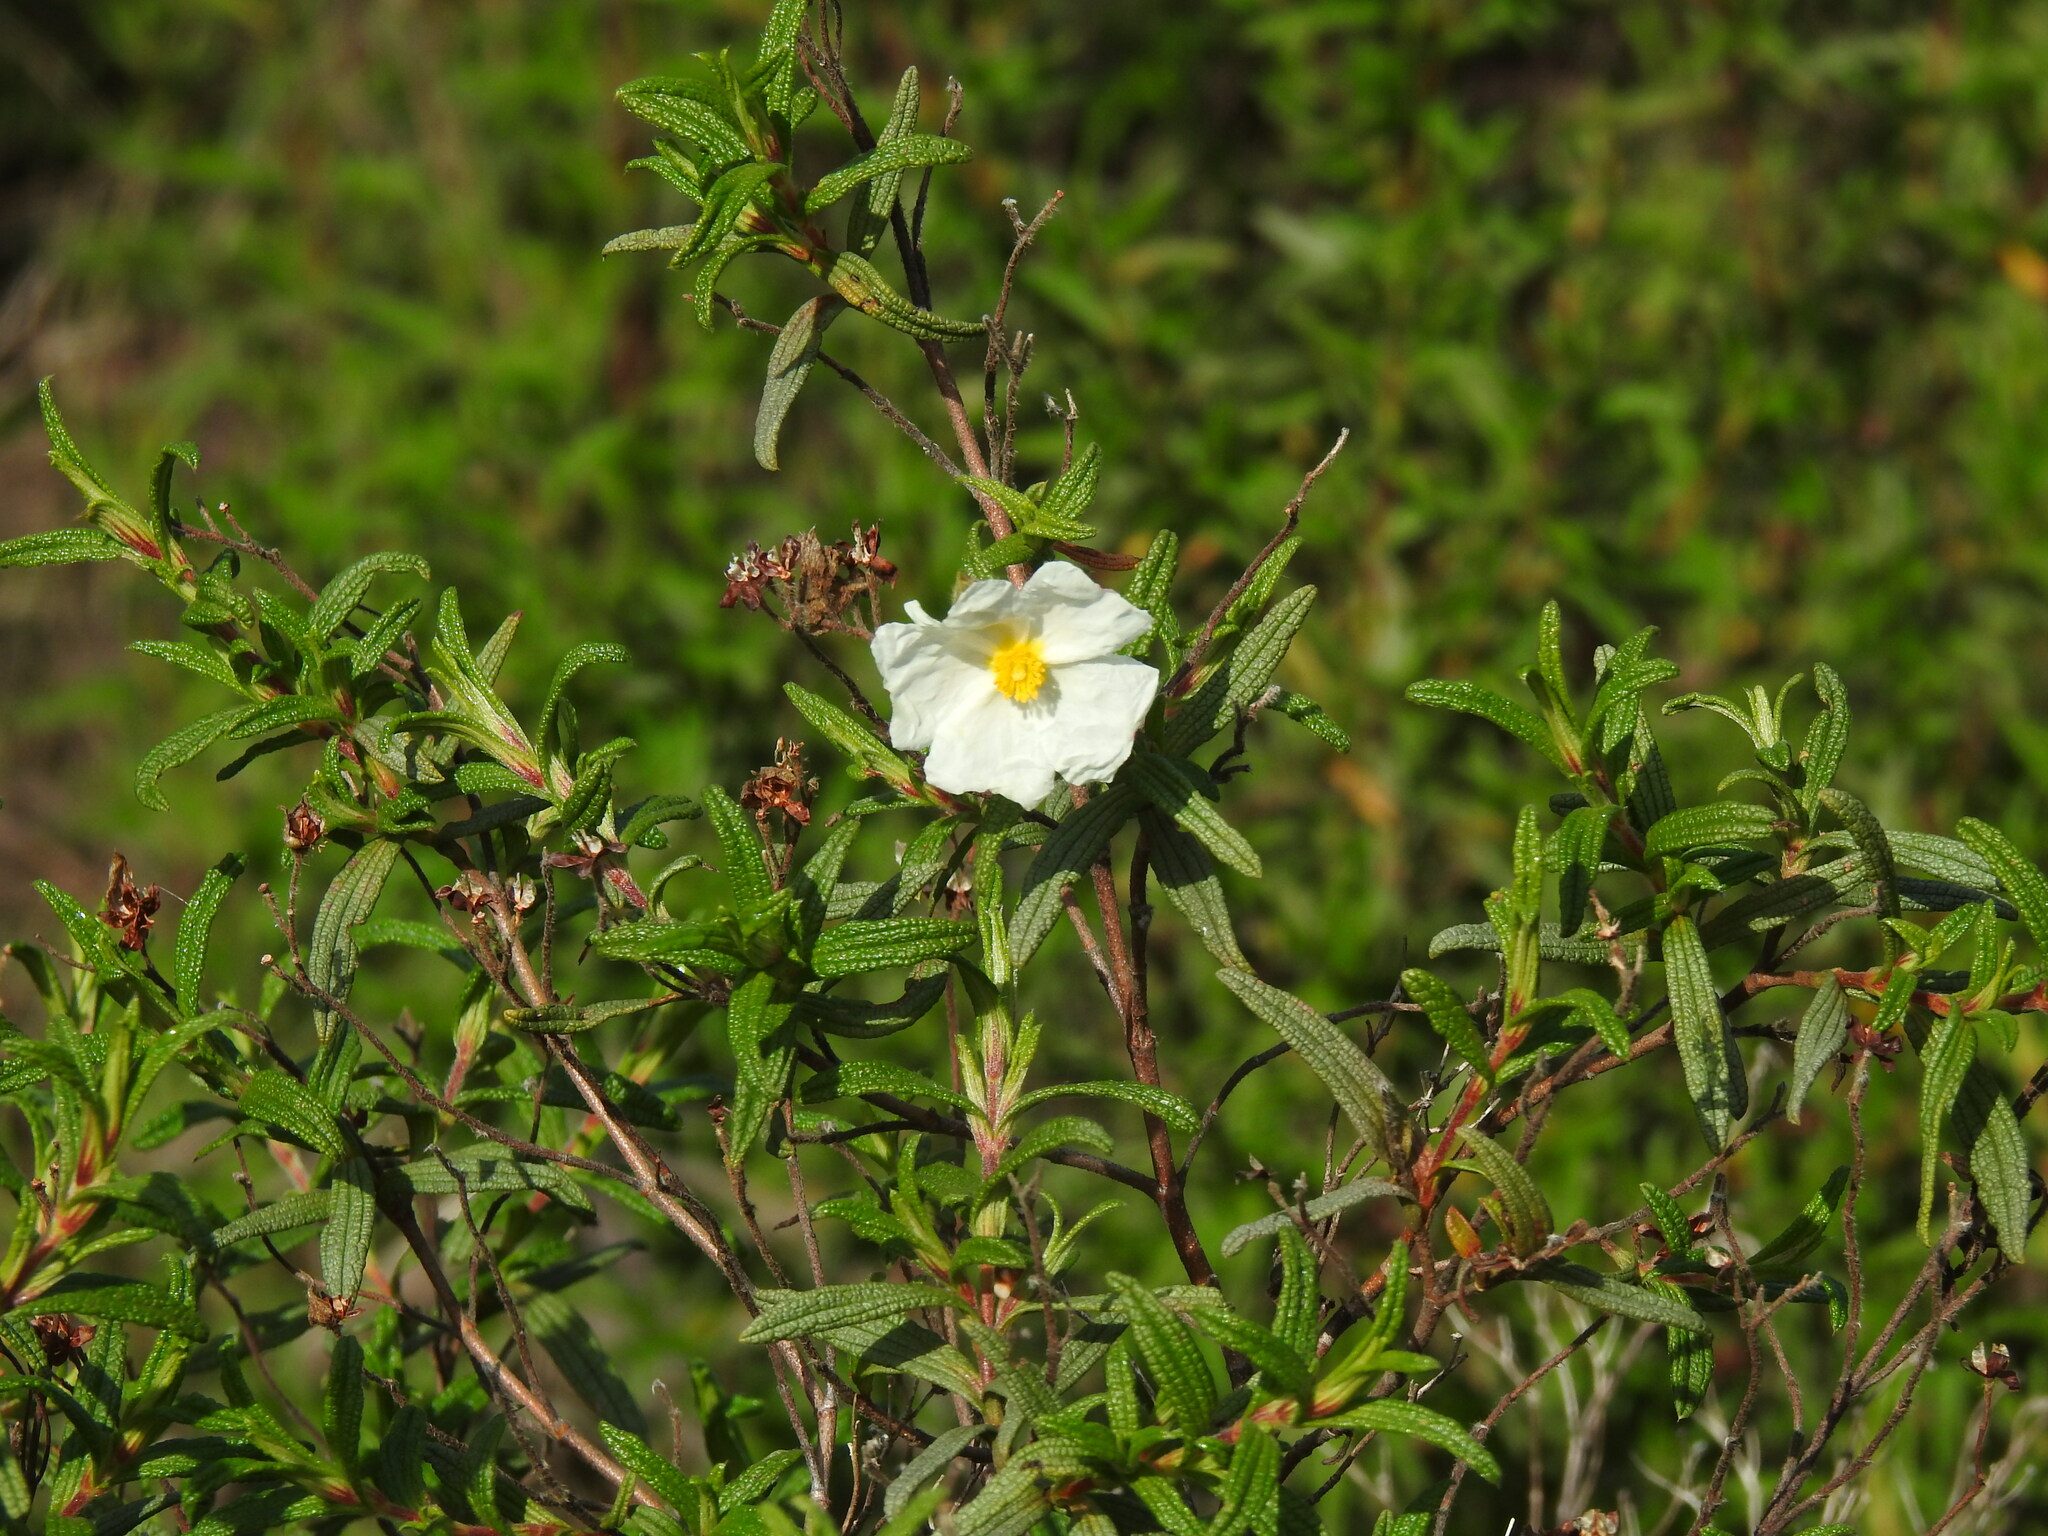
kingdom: Plantae
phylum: Tracheophyta
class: Magnoliopsida
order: Malvales
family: Cistaceae
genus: Cistus
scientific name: Cistus monspeliensis
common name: Montpelier cistus
